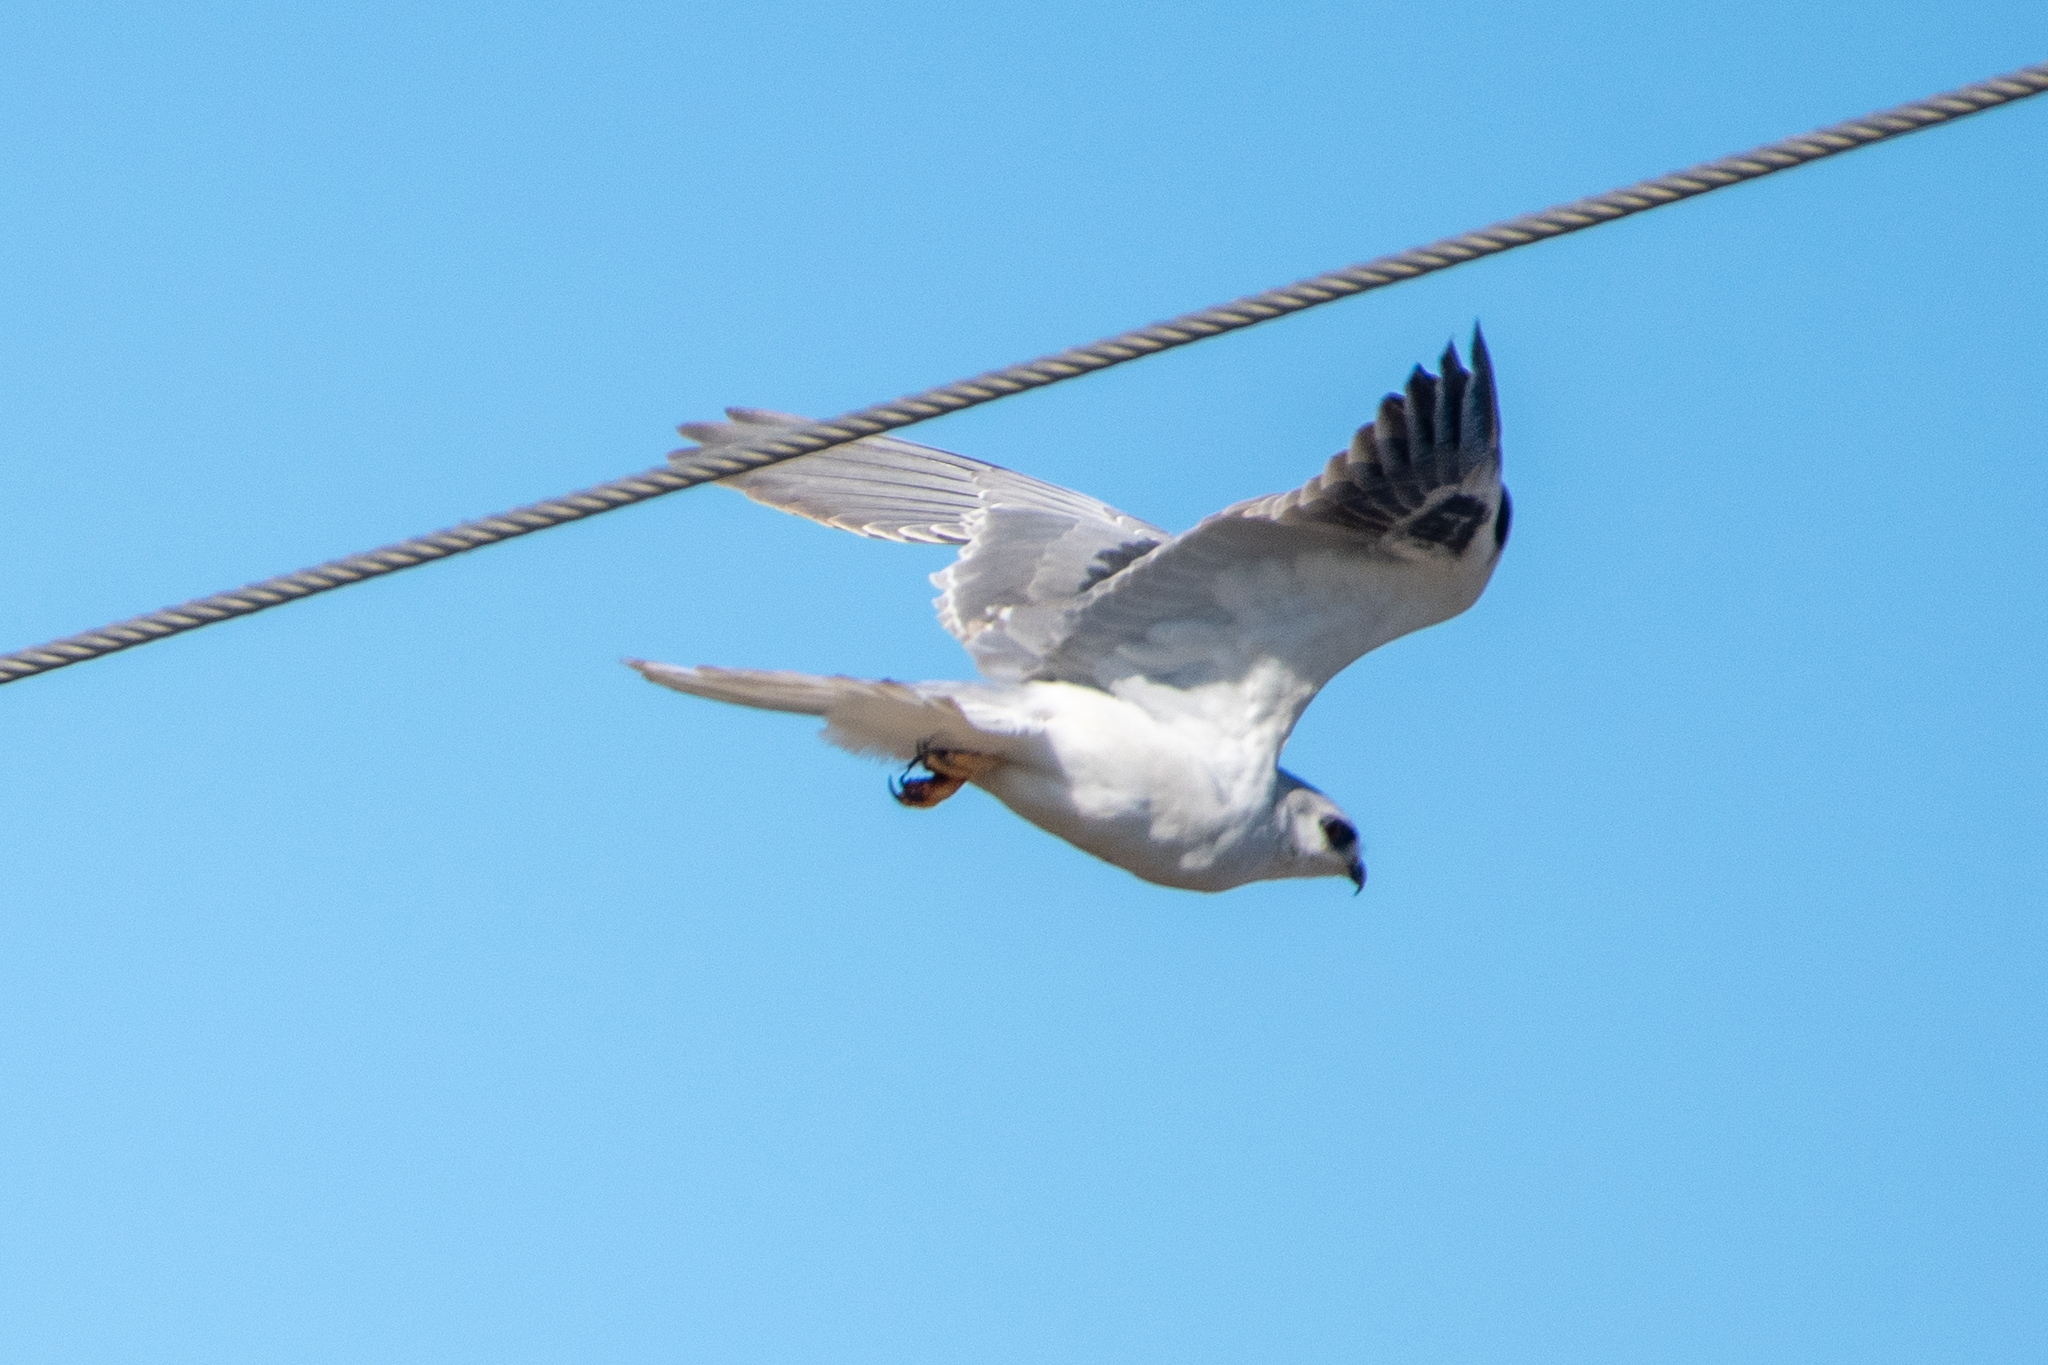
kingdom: Animalia
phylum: Chordata
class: Aves
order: Accipitriformes
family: Accipitridae
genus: Elanus
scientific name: Elanus leucurus
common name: White-tailed kite
